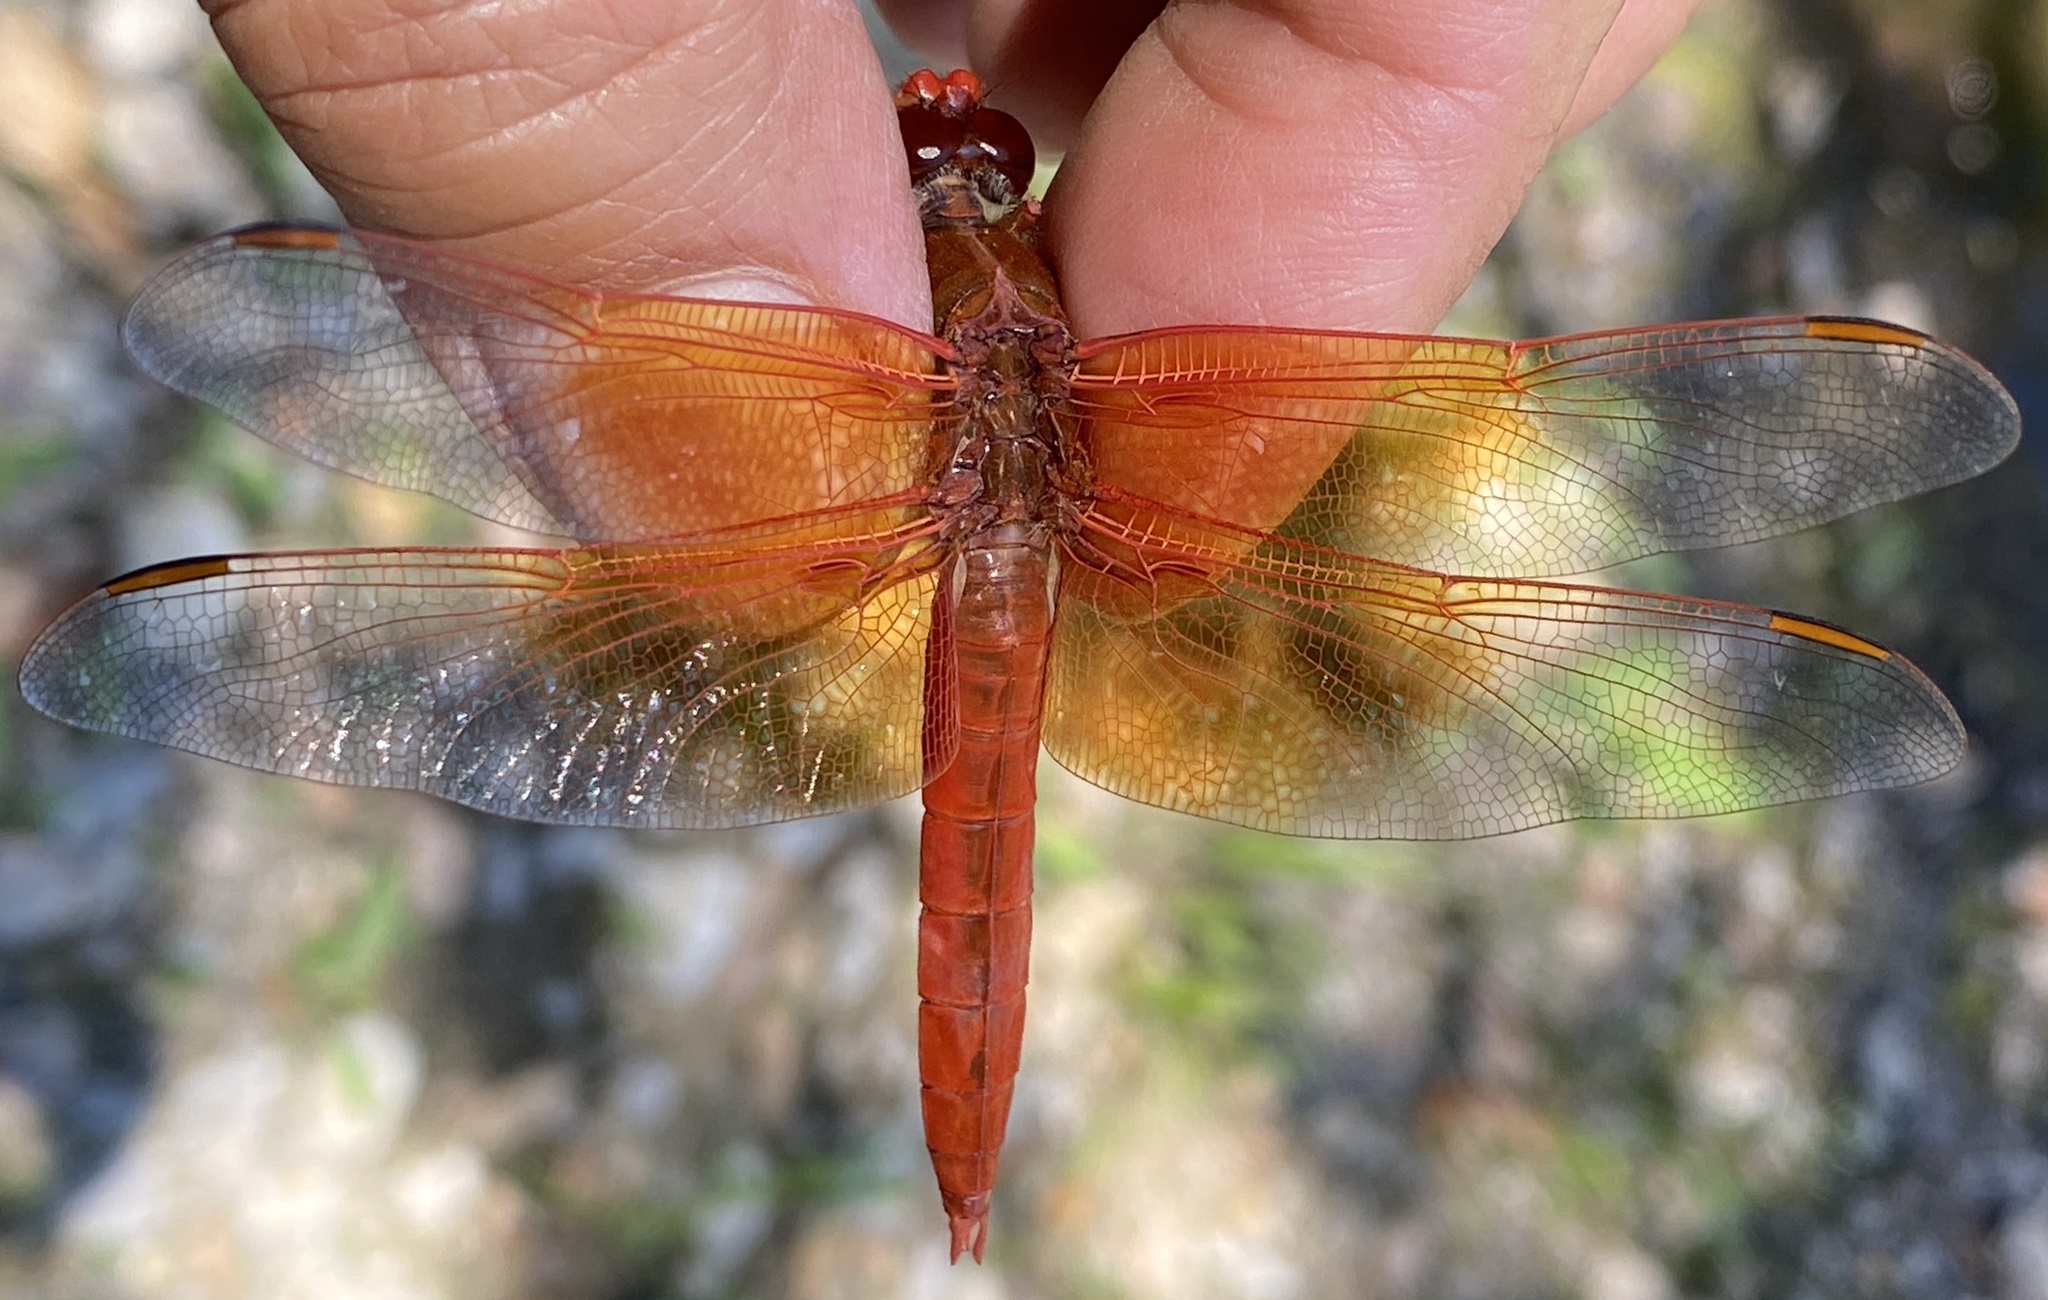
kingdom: Animalia
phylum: Arthropoda
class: Insecta
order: Odonata
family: Libellulidae
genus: Libellula
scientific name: Libellula saturata
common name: Flame skimmer
